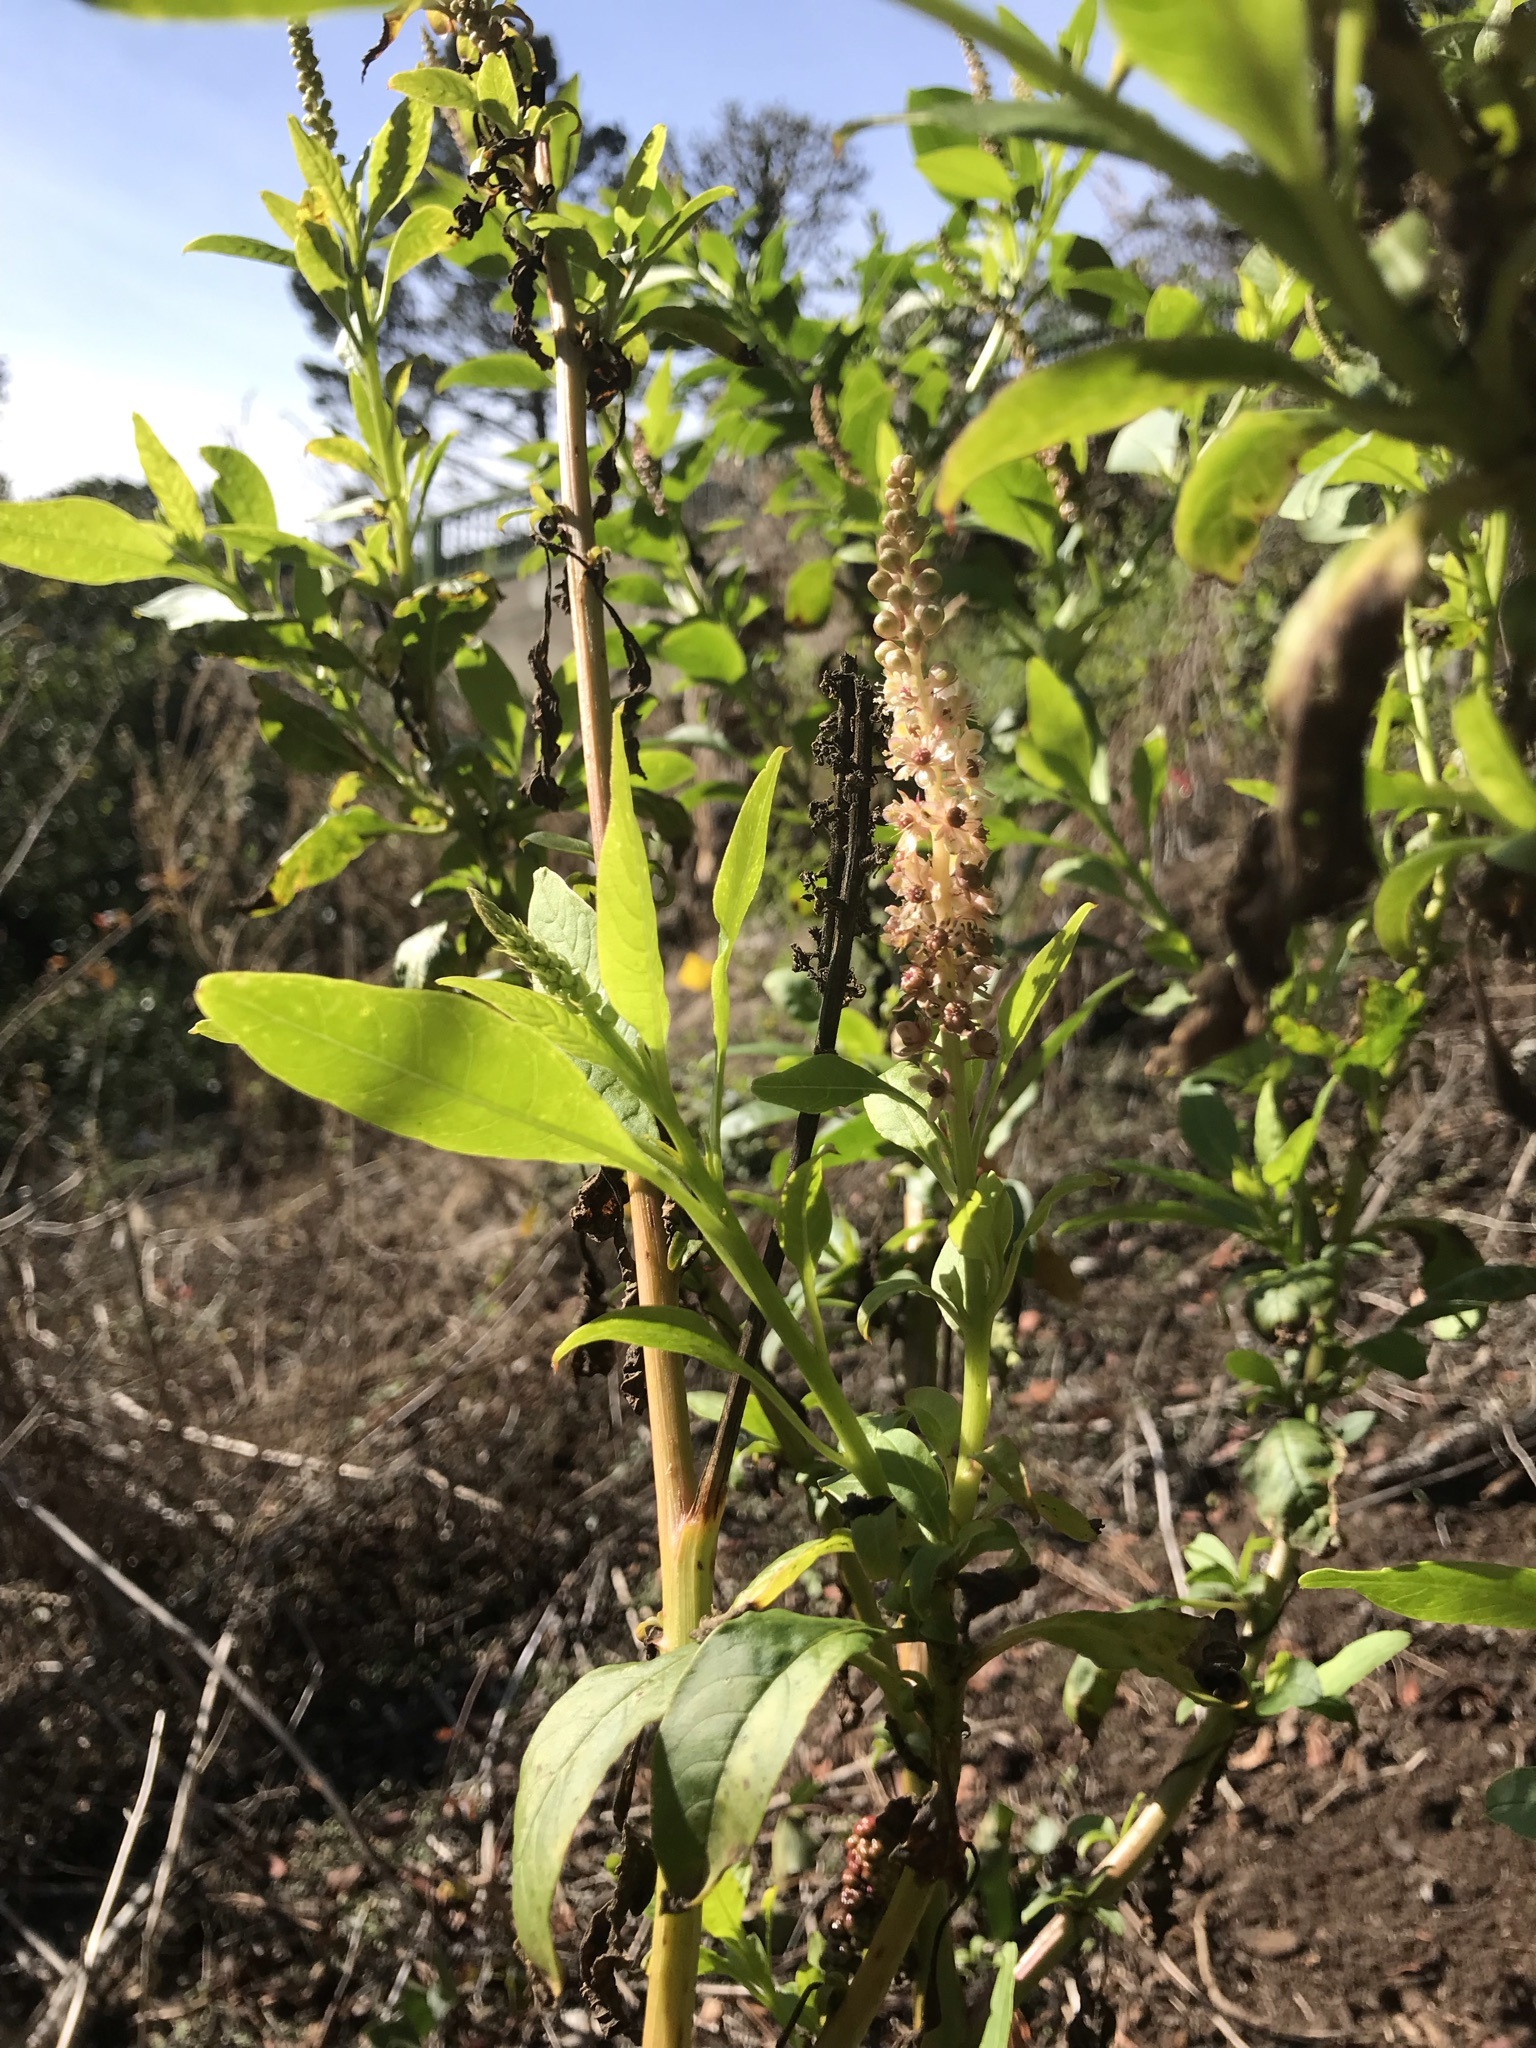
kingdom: Plantae
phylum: Tracheophyta
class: Magnoliopsida
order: Caryophyllales
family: Phytolaccaceae
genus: Phytolacca
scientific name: Phytolacca heterotepala
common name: Mexican pokeweed
